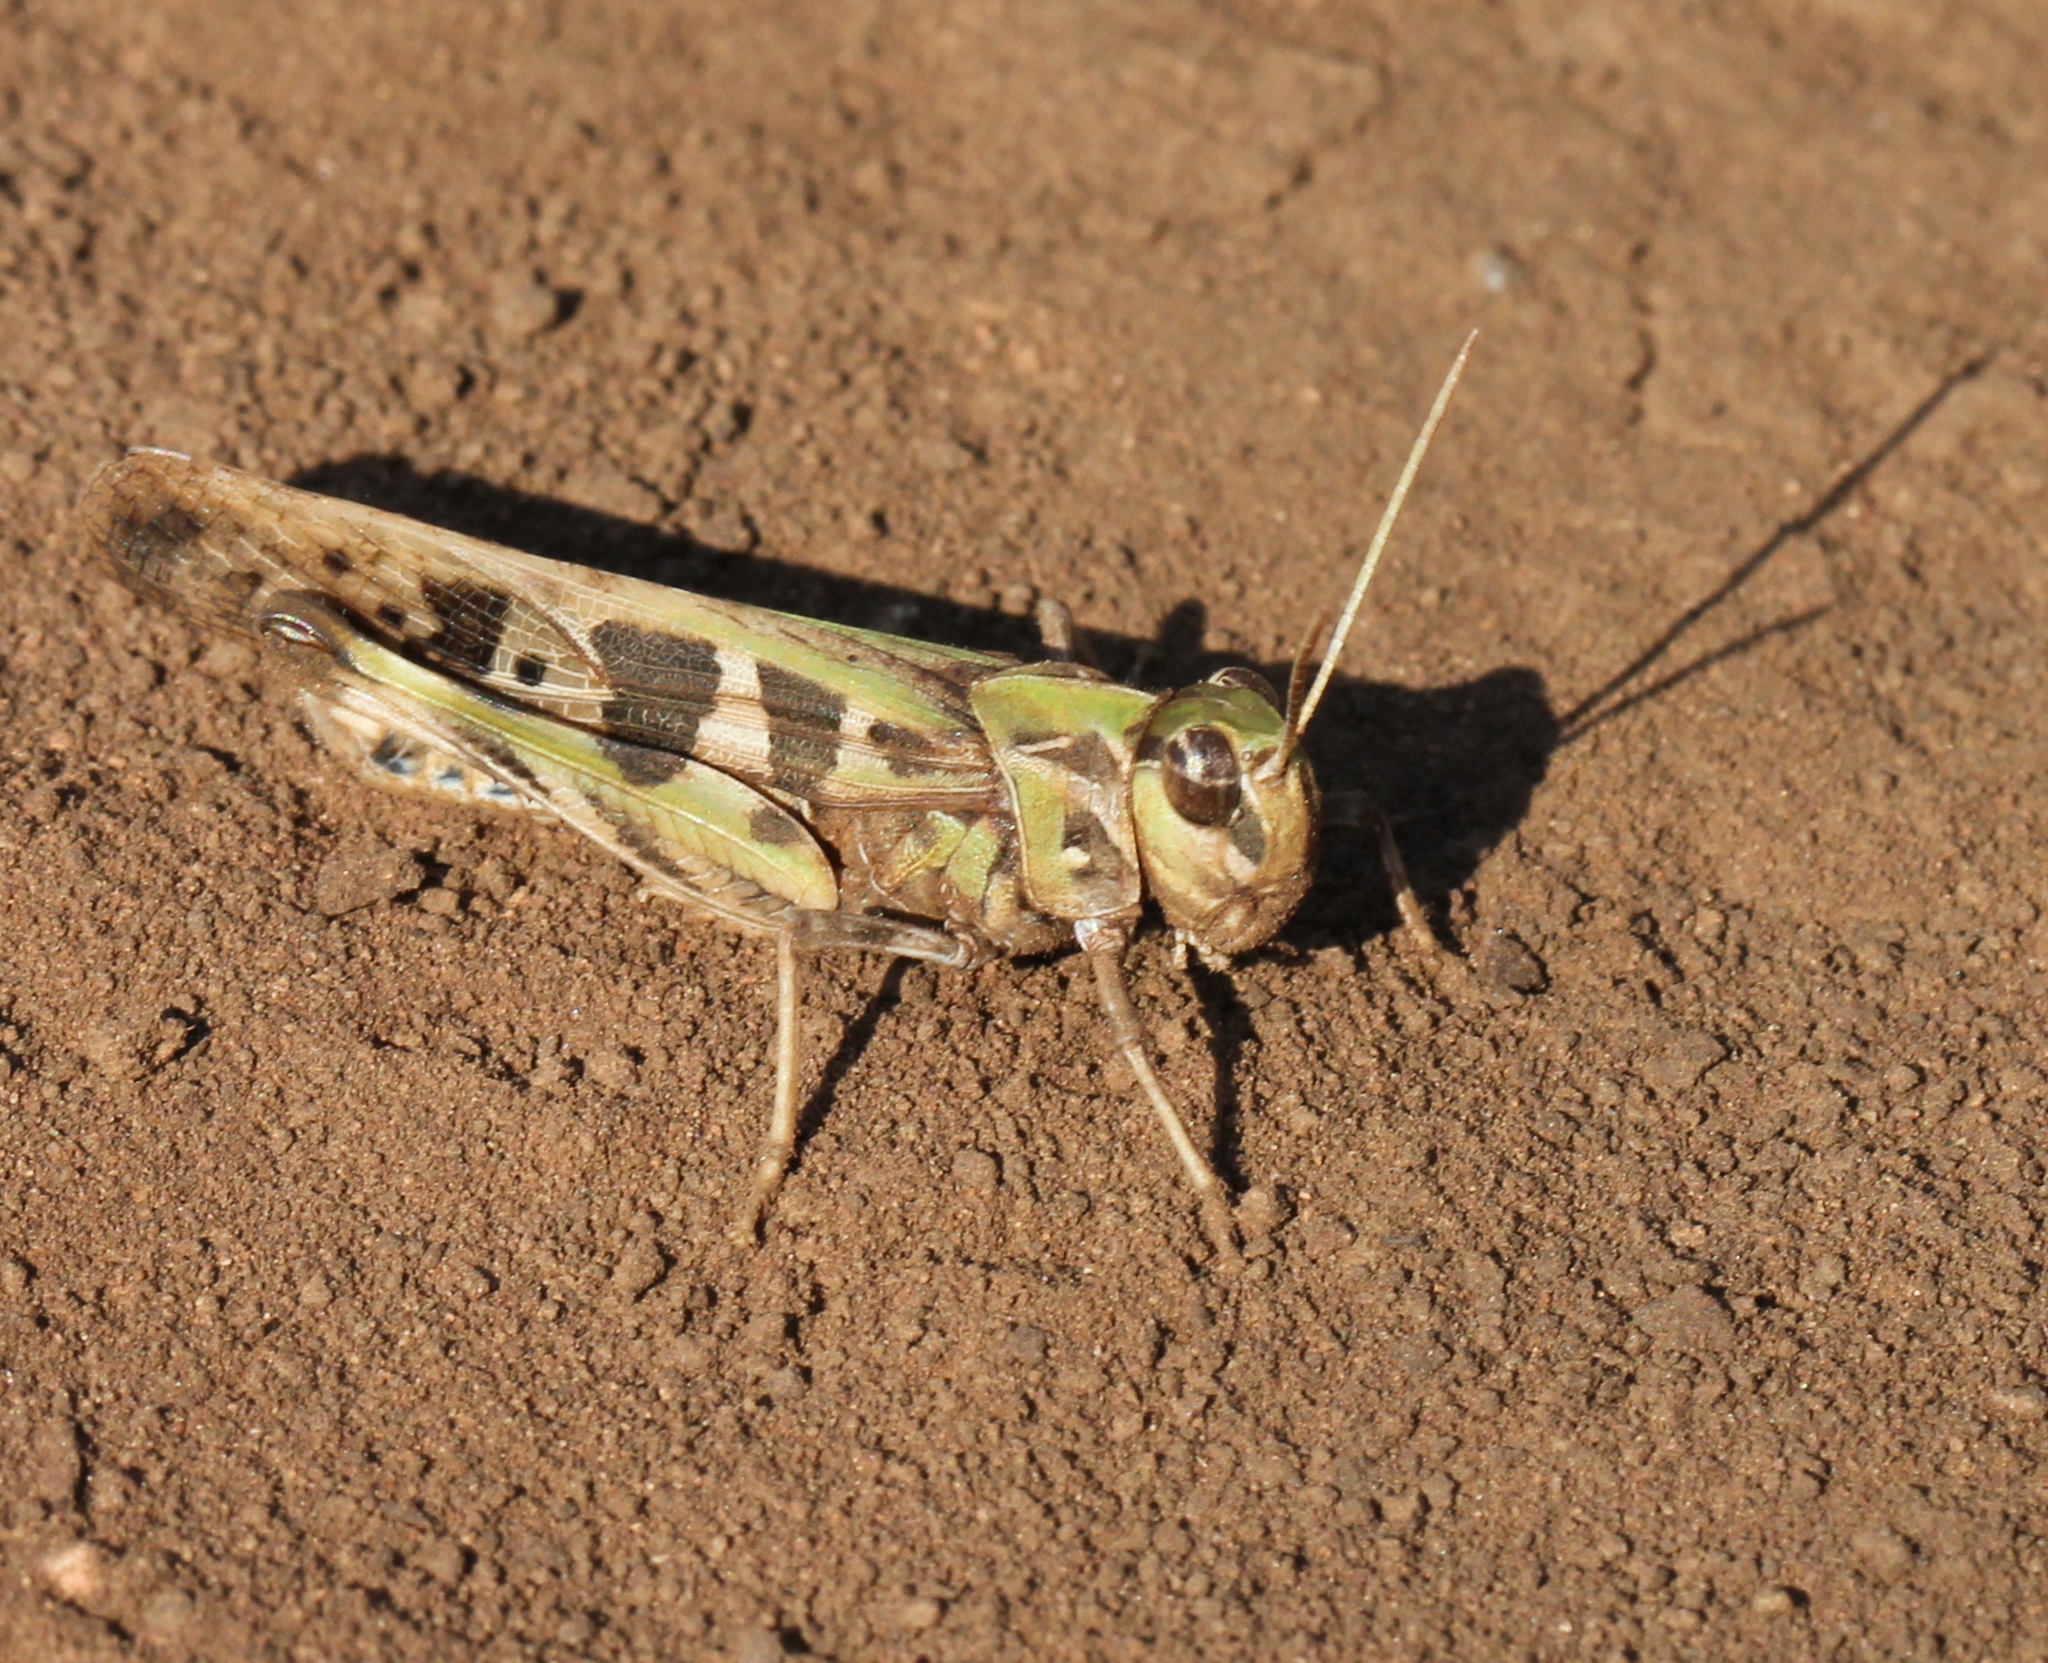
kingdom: Animalia
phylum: Arthropoda
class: Insecta
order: Orthoptera
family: Acrididae
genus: Oedaleus
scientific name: Oedaleus decorus
